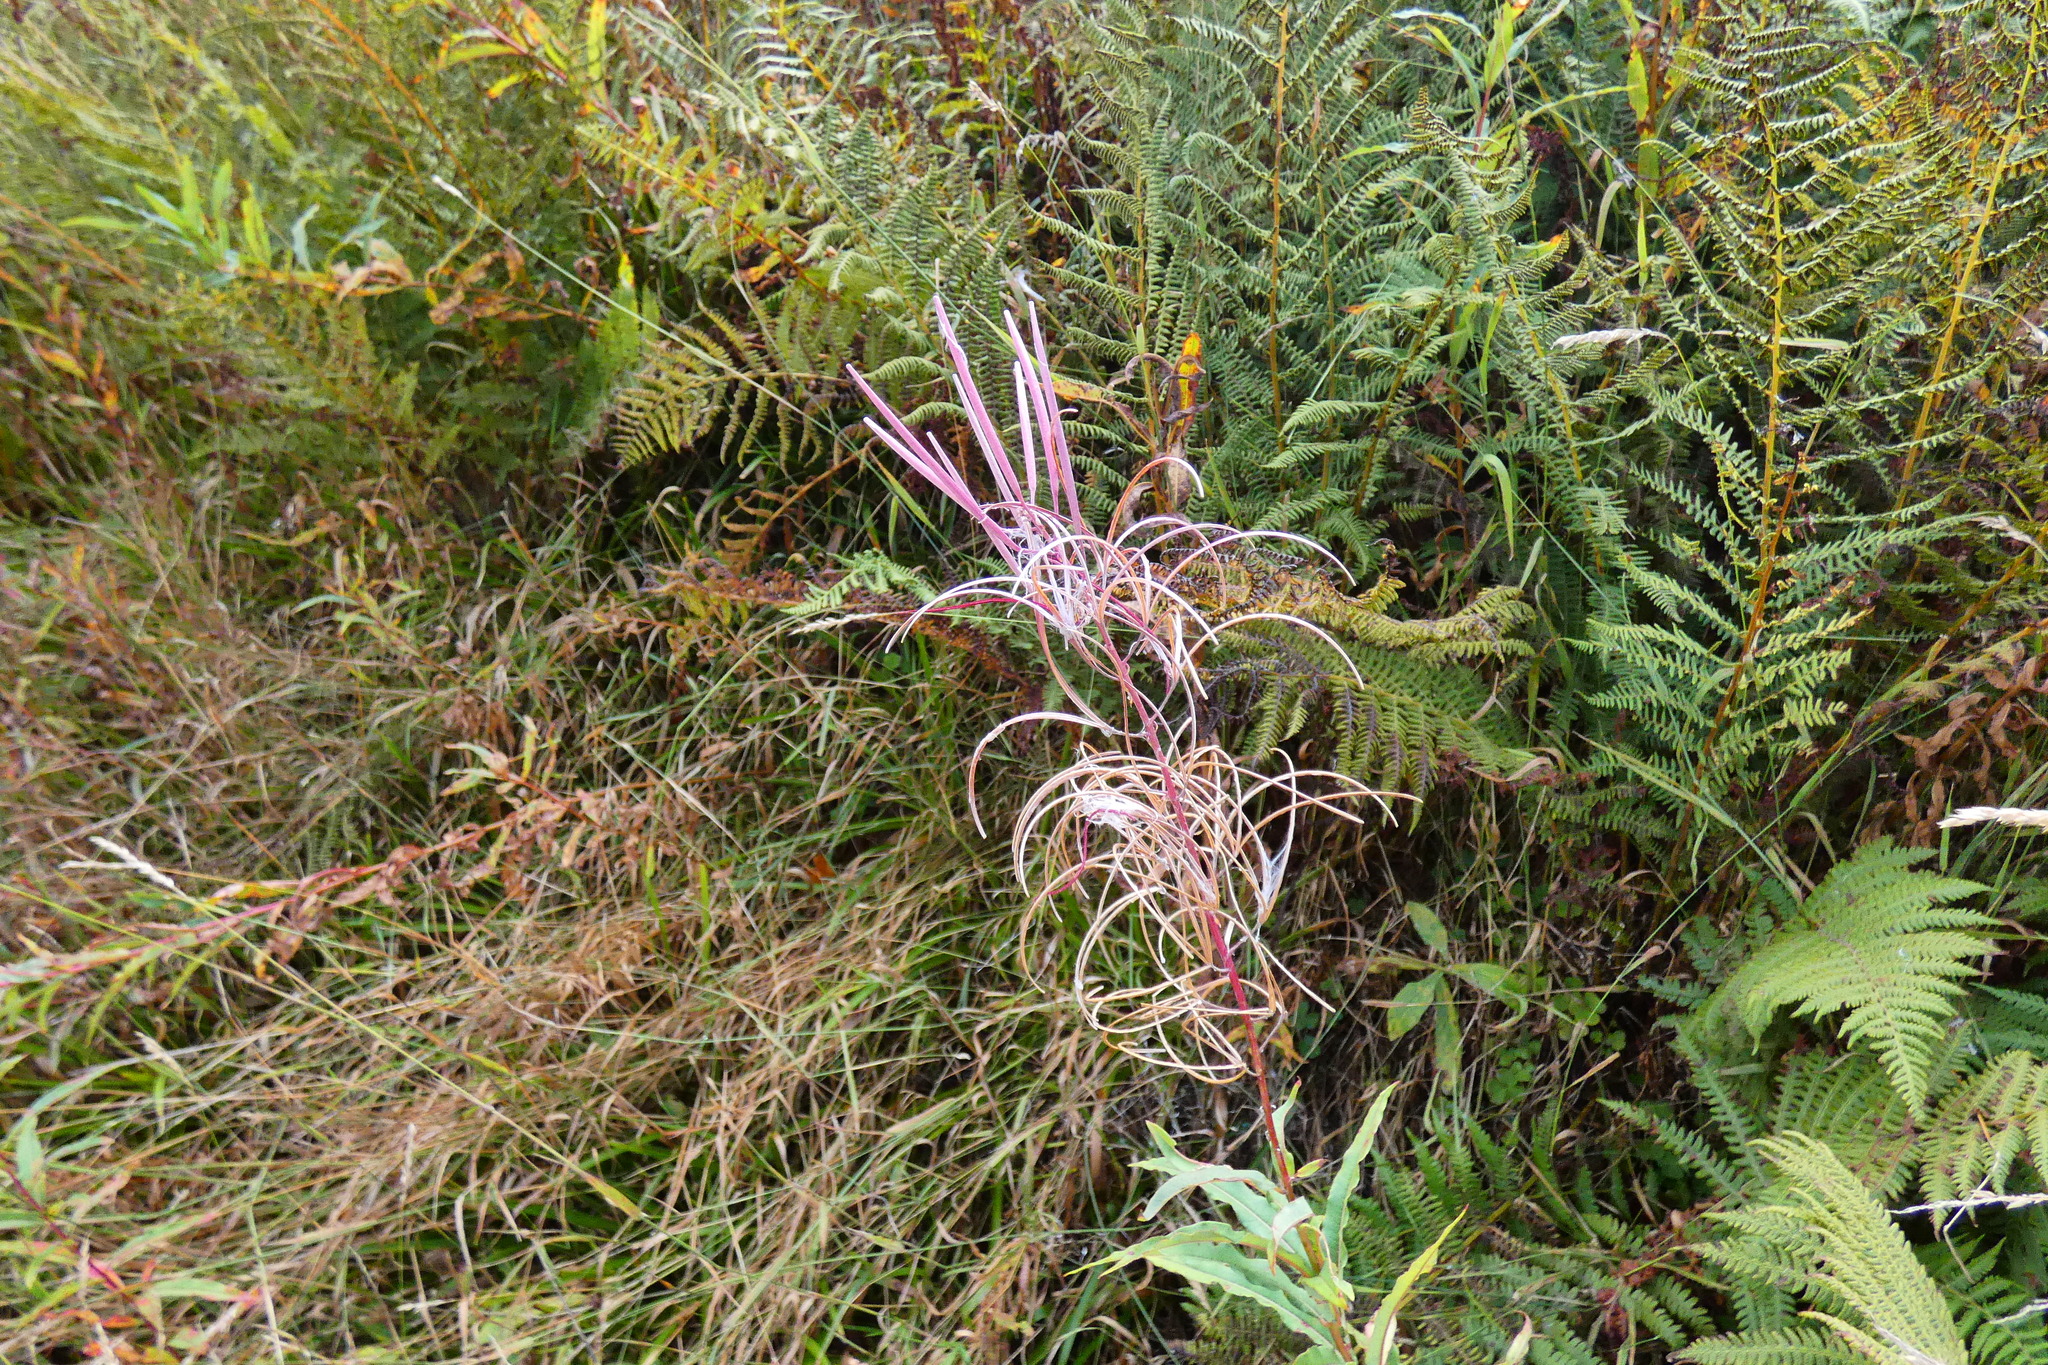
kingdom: Plantae
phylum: Tracheophyta
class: Magnoliopsida
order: Myrtales
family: Onagraceae
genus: Chamaenerion
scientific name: Chamaenerion angustifolium
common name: Fireweed
